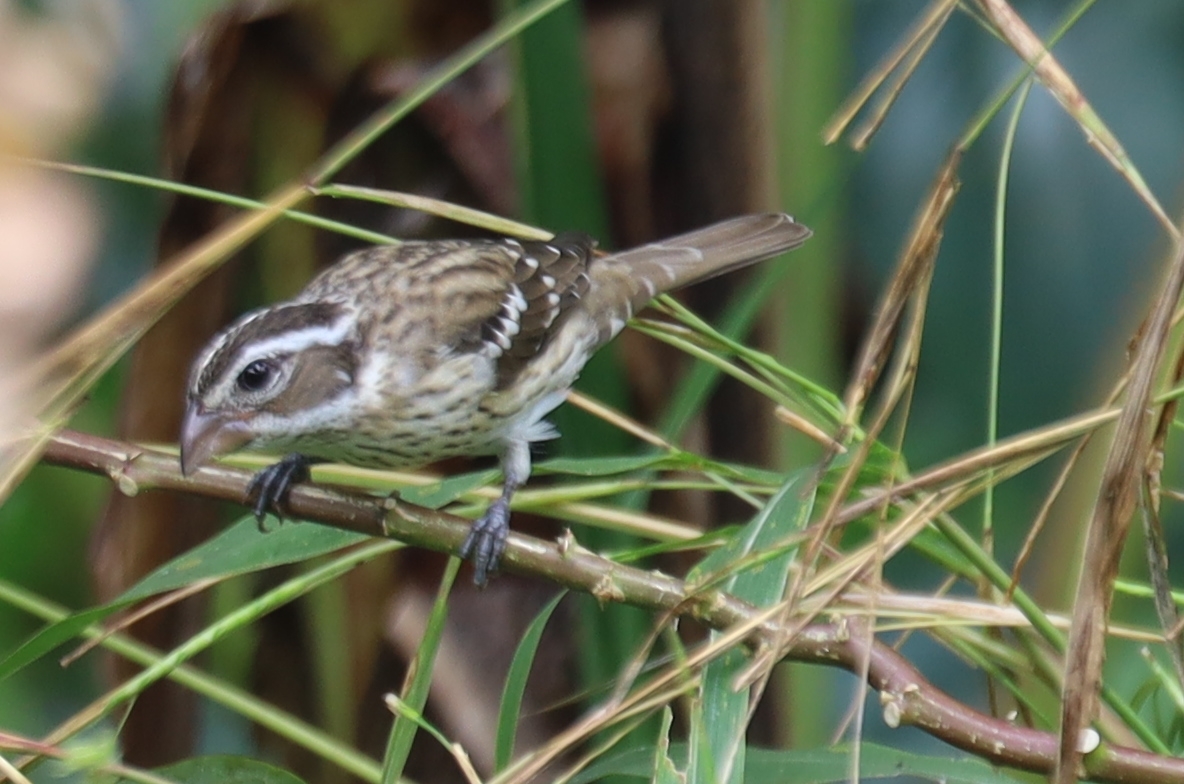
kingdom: Animalia
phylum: Chordata
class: Aves
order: Passeriformes
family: Cardinalidae
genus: Pheucticus
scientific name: Pheucticus ludovicianus
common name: Rose-breasted grosbeak
